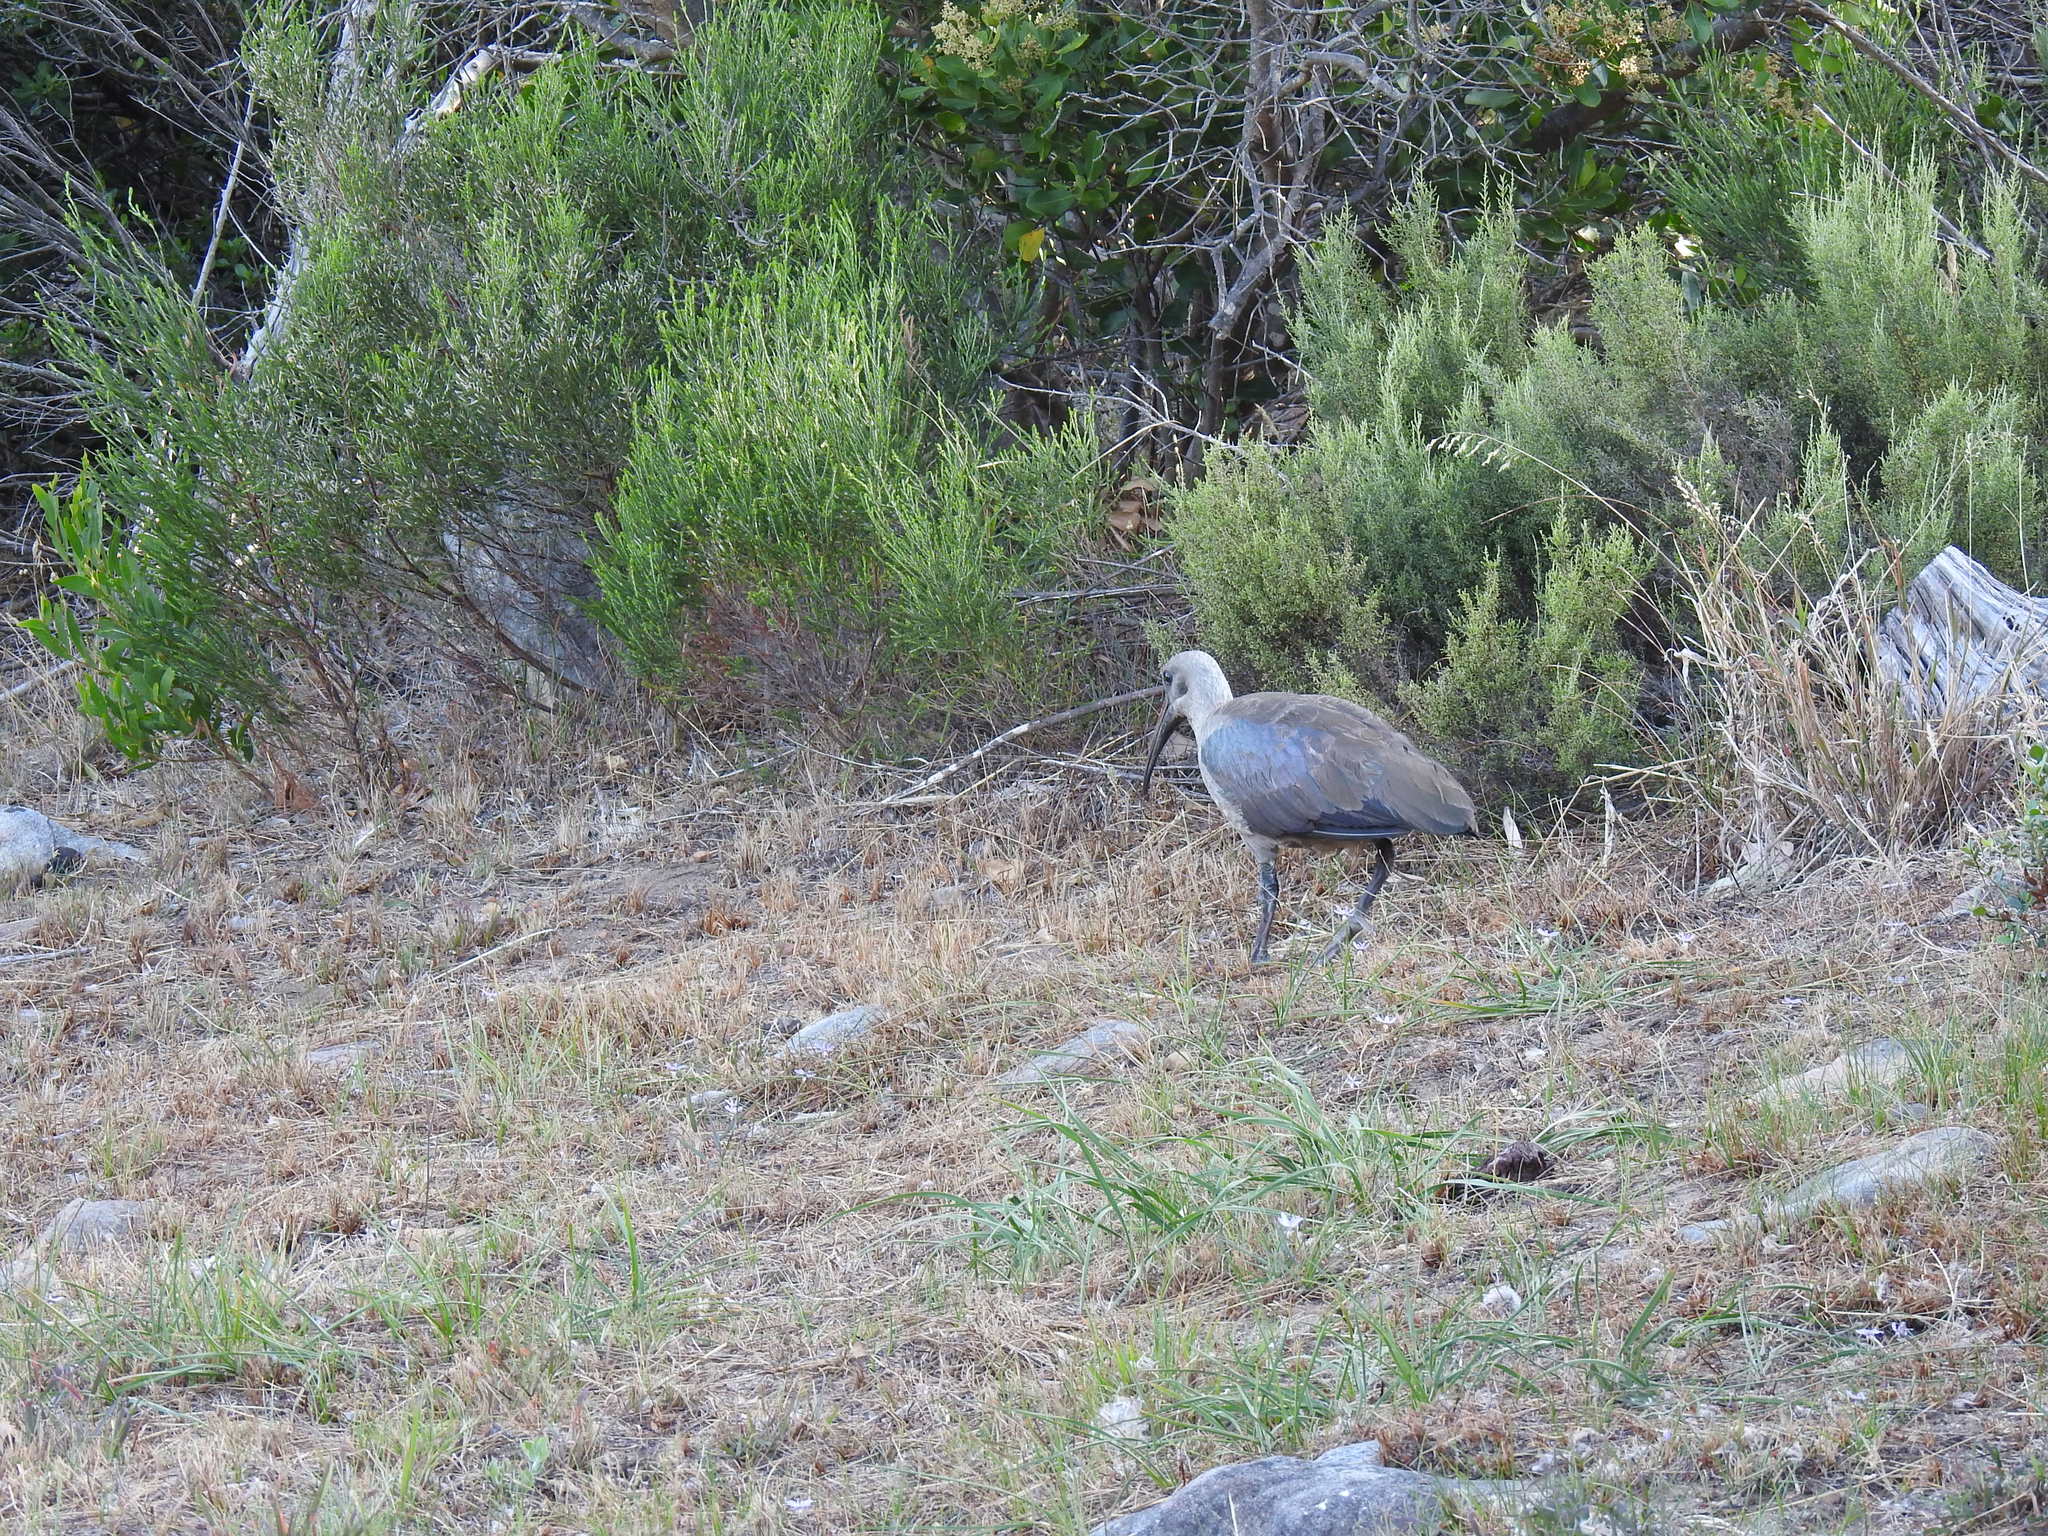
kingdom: Animalia
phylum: Chordata
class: Aves
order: Pelecaniformes
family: Threskiornithidae
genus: Bostrychia
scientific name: Bostrychia hagedash
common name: Hadada ibis
